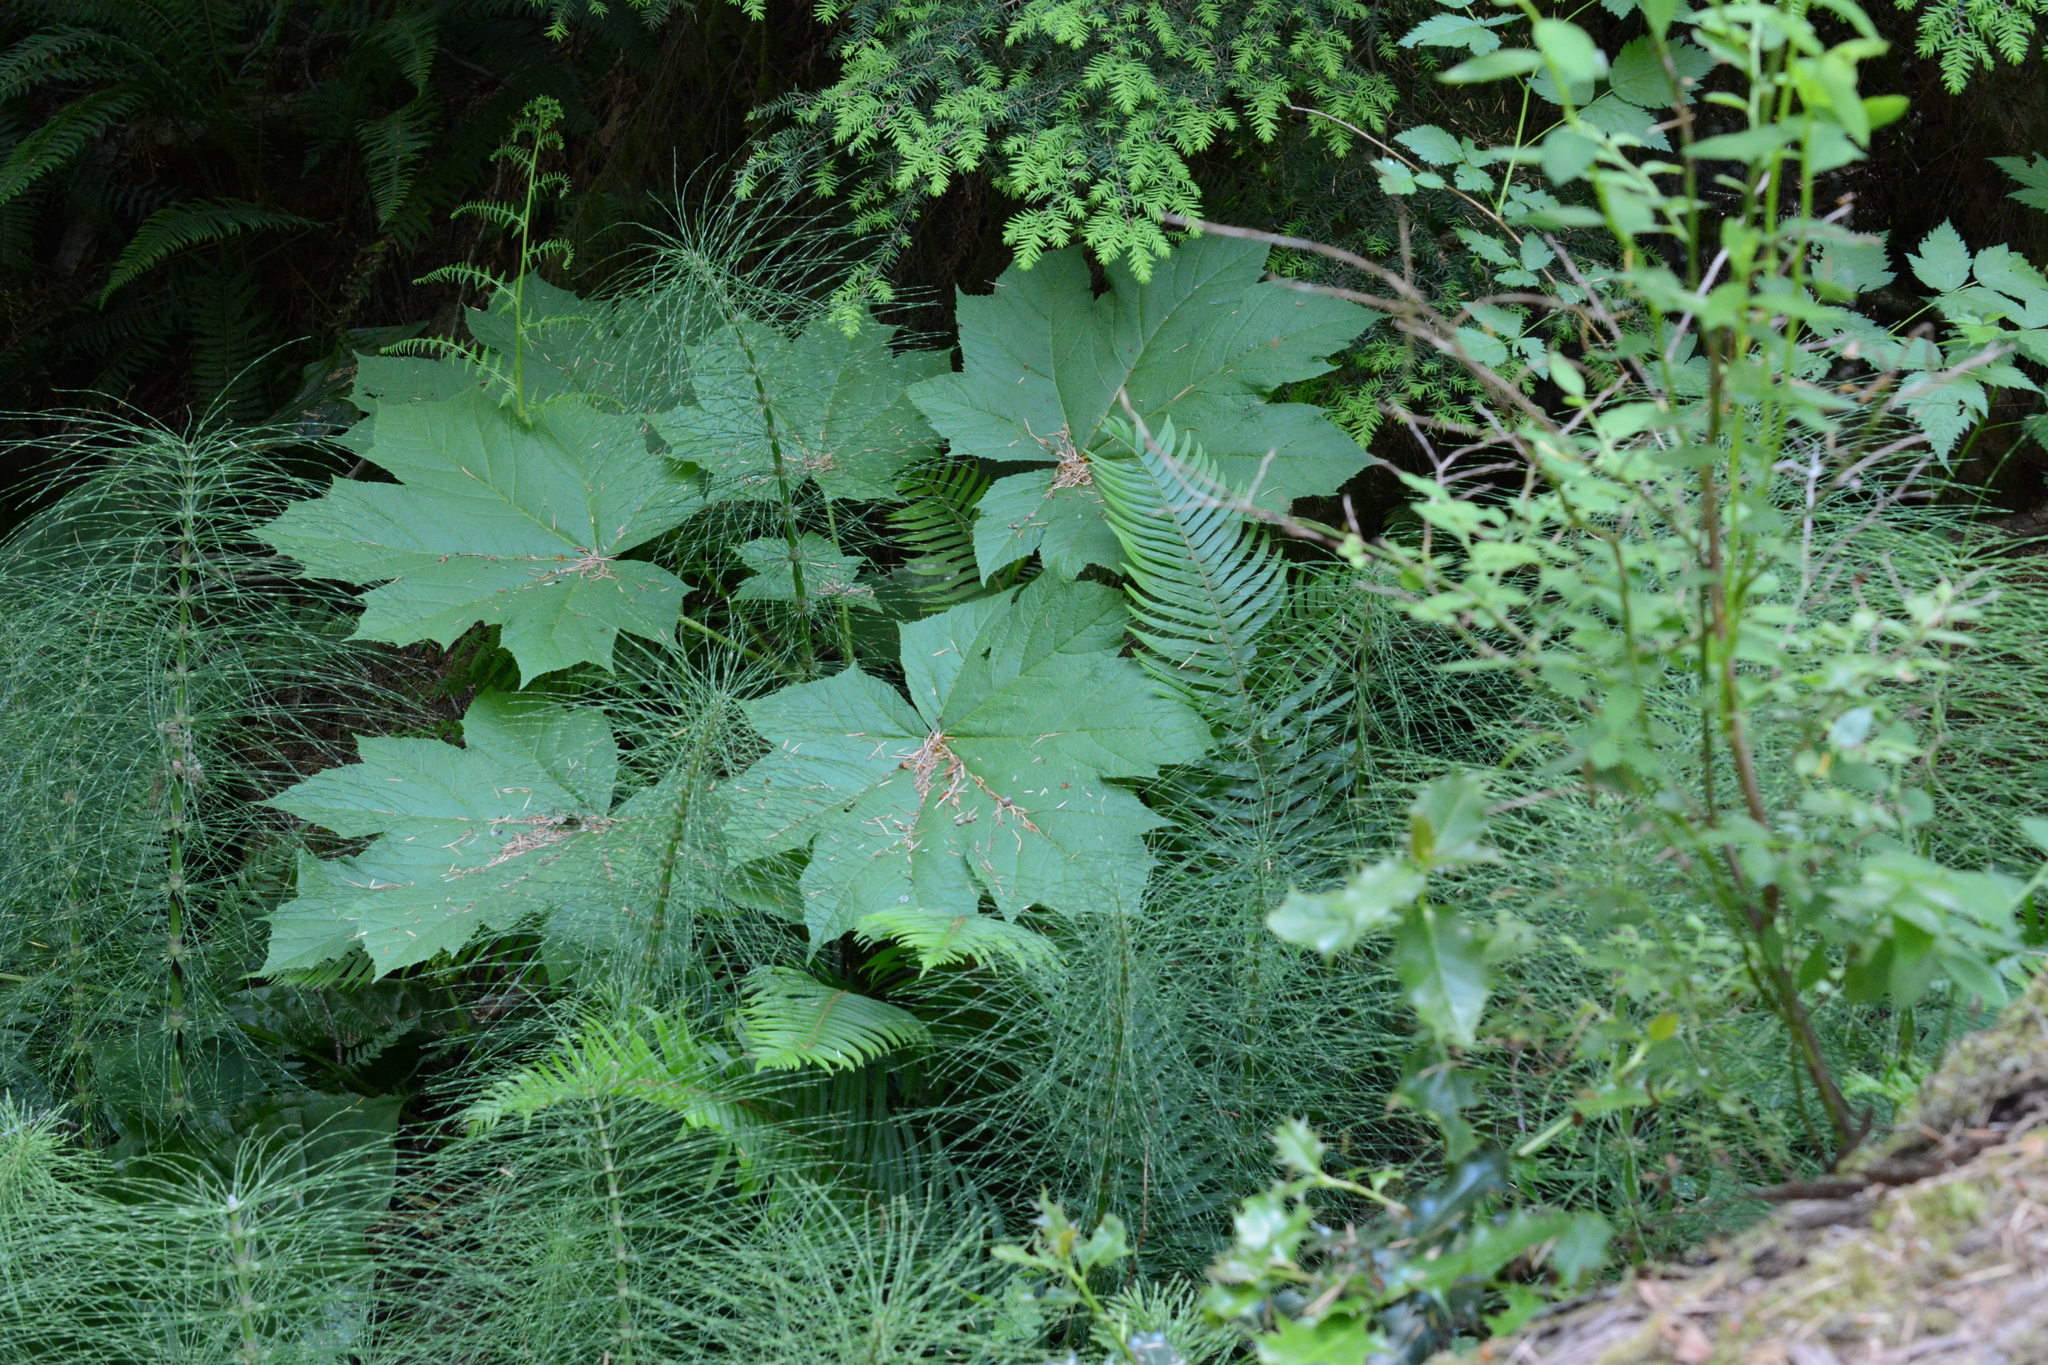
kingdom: Plantae
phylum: Tracheophyta
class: Magnoliopsida
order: Apiales
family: Araliaceae
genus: Oplopanax
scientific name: Oplopanax horridus
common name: Devil's walking-stick
